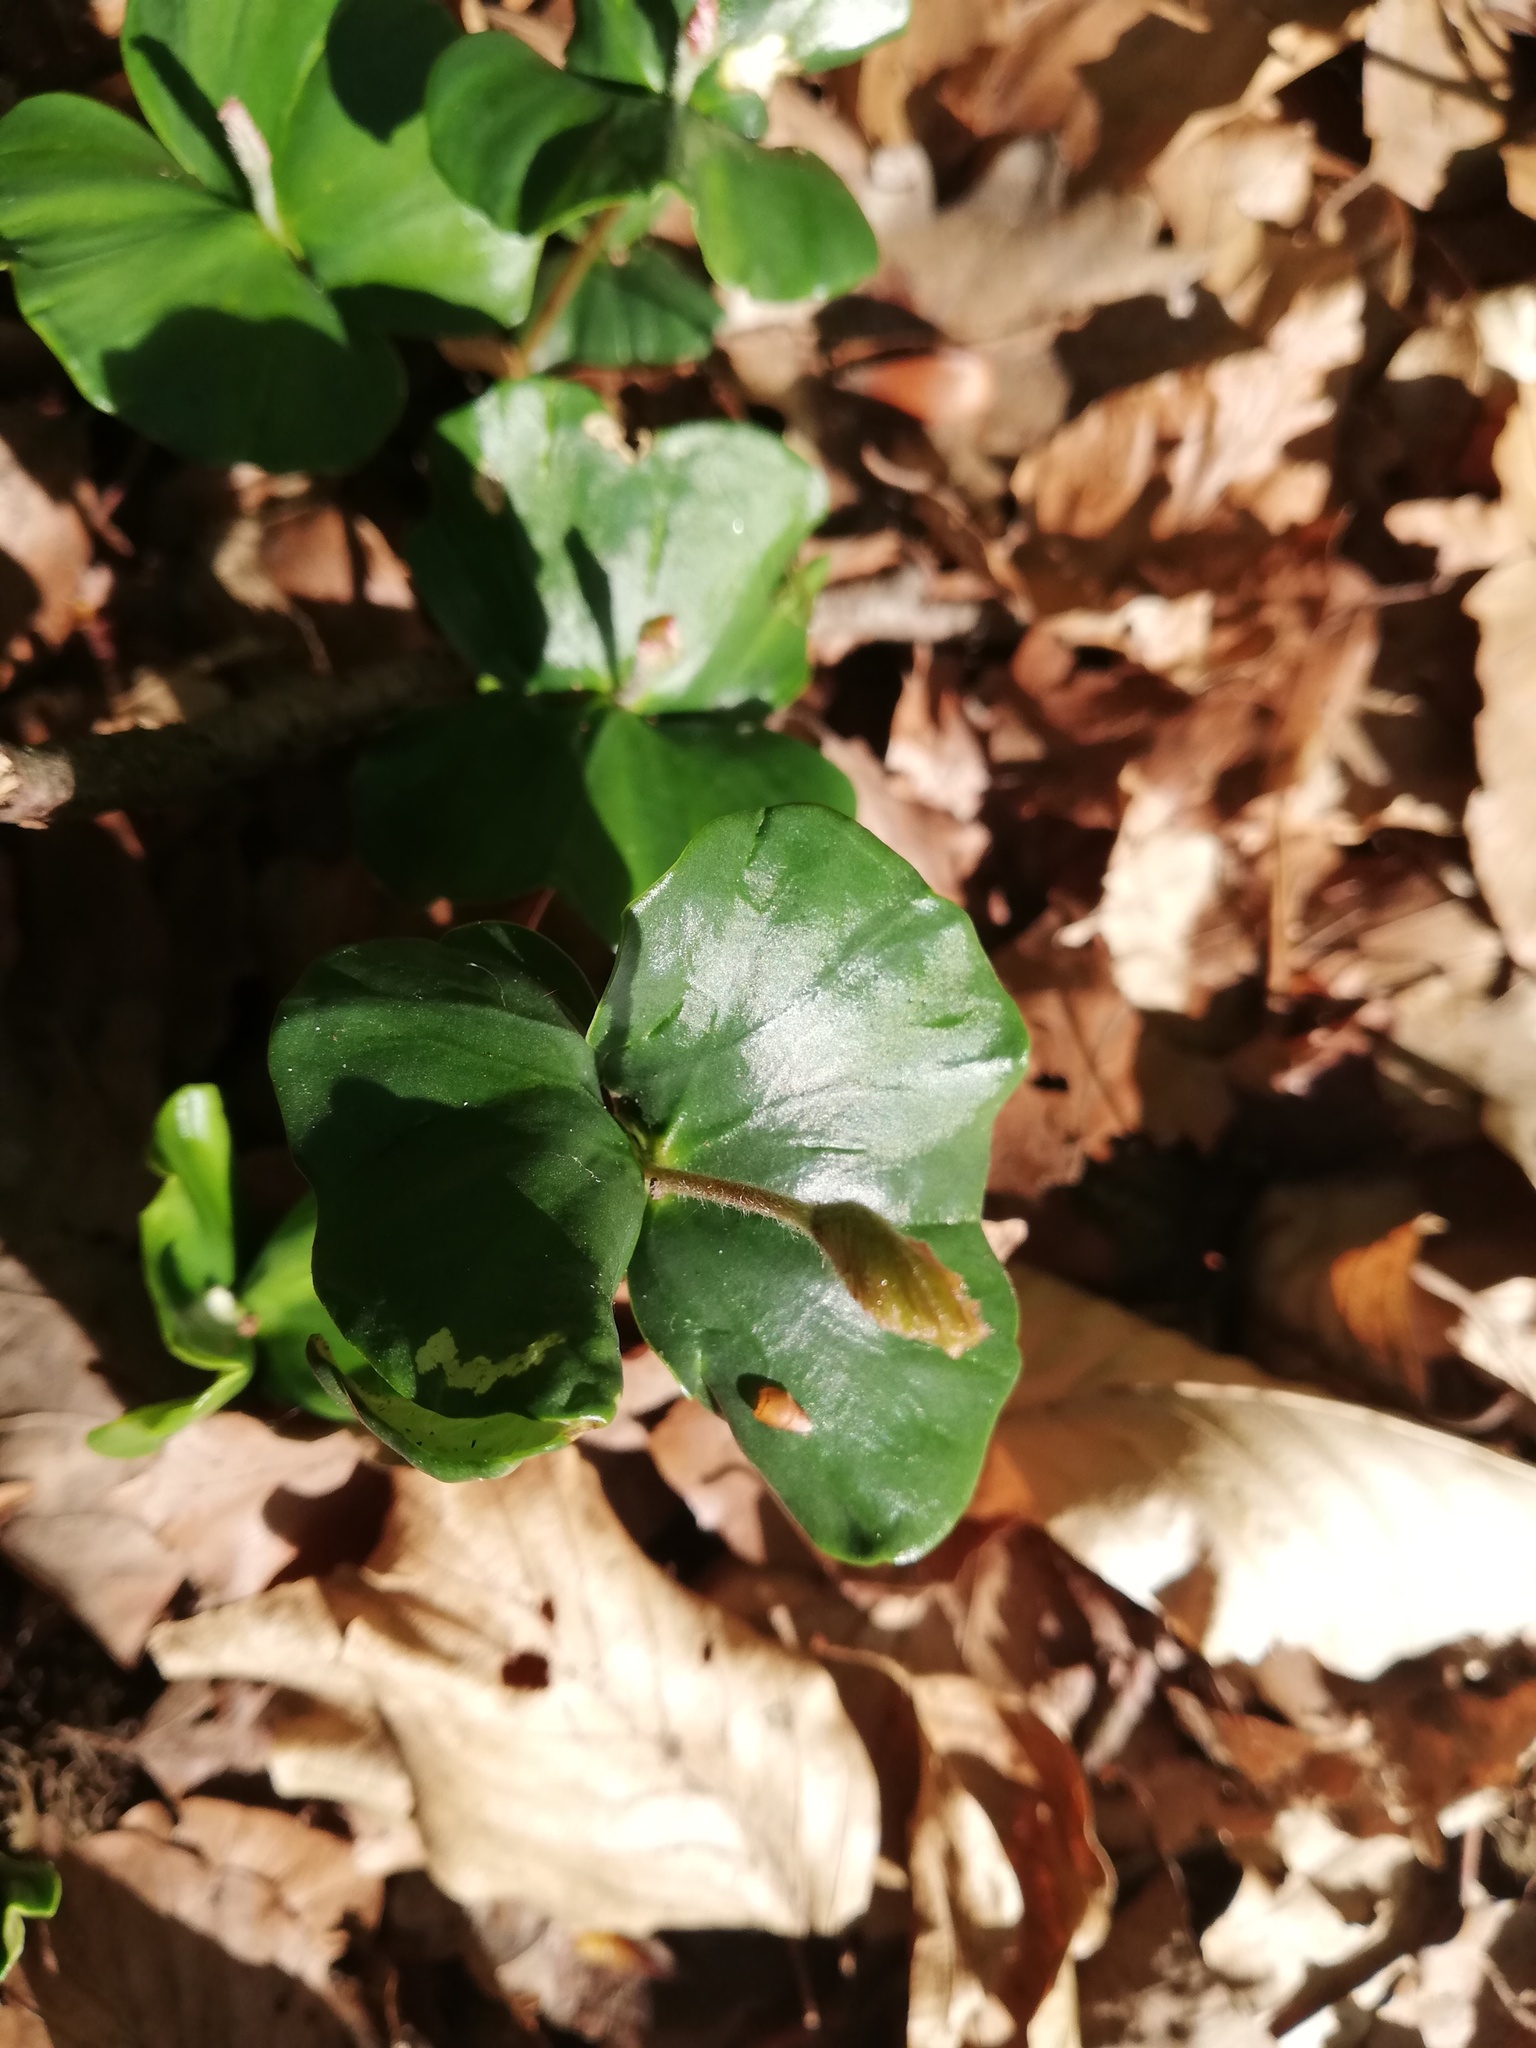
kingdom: Plantae
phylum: Tracheophyta
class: Magnoliopsida
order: Fagales
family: Fagaceae
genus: Fagus
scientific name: Fagus sylvatica
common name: Beech
